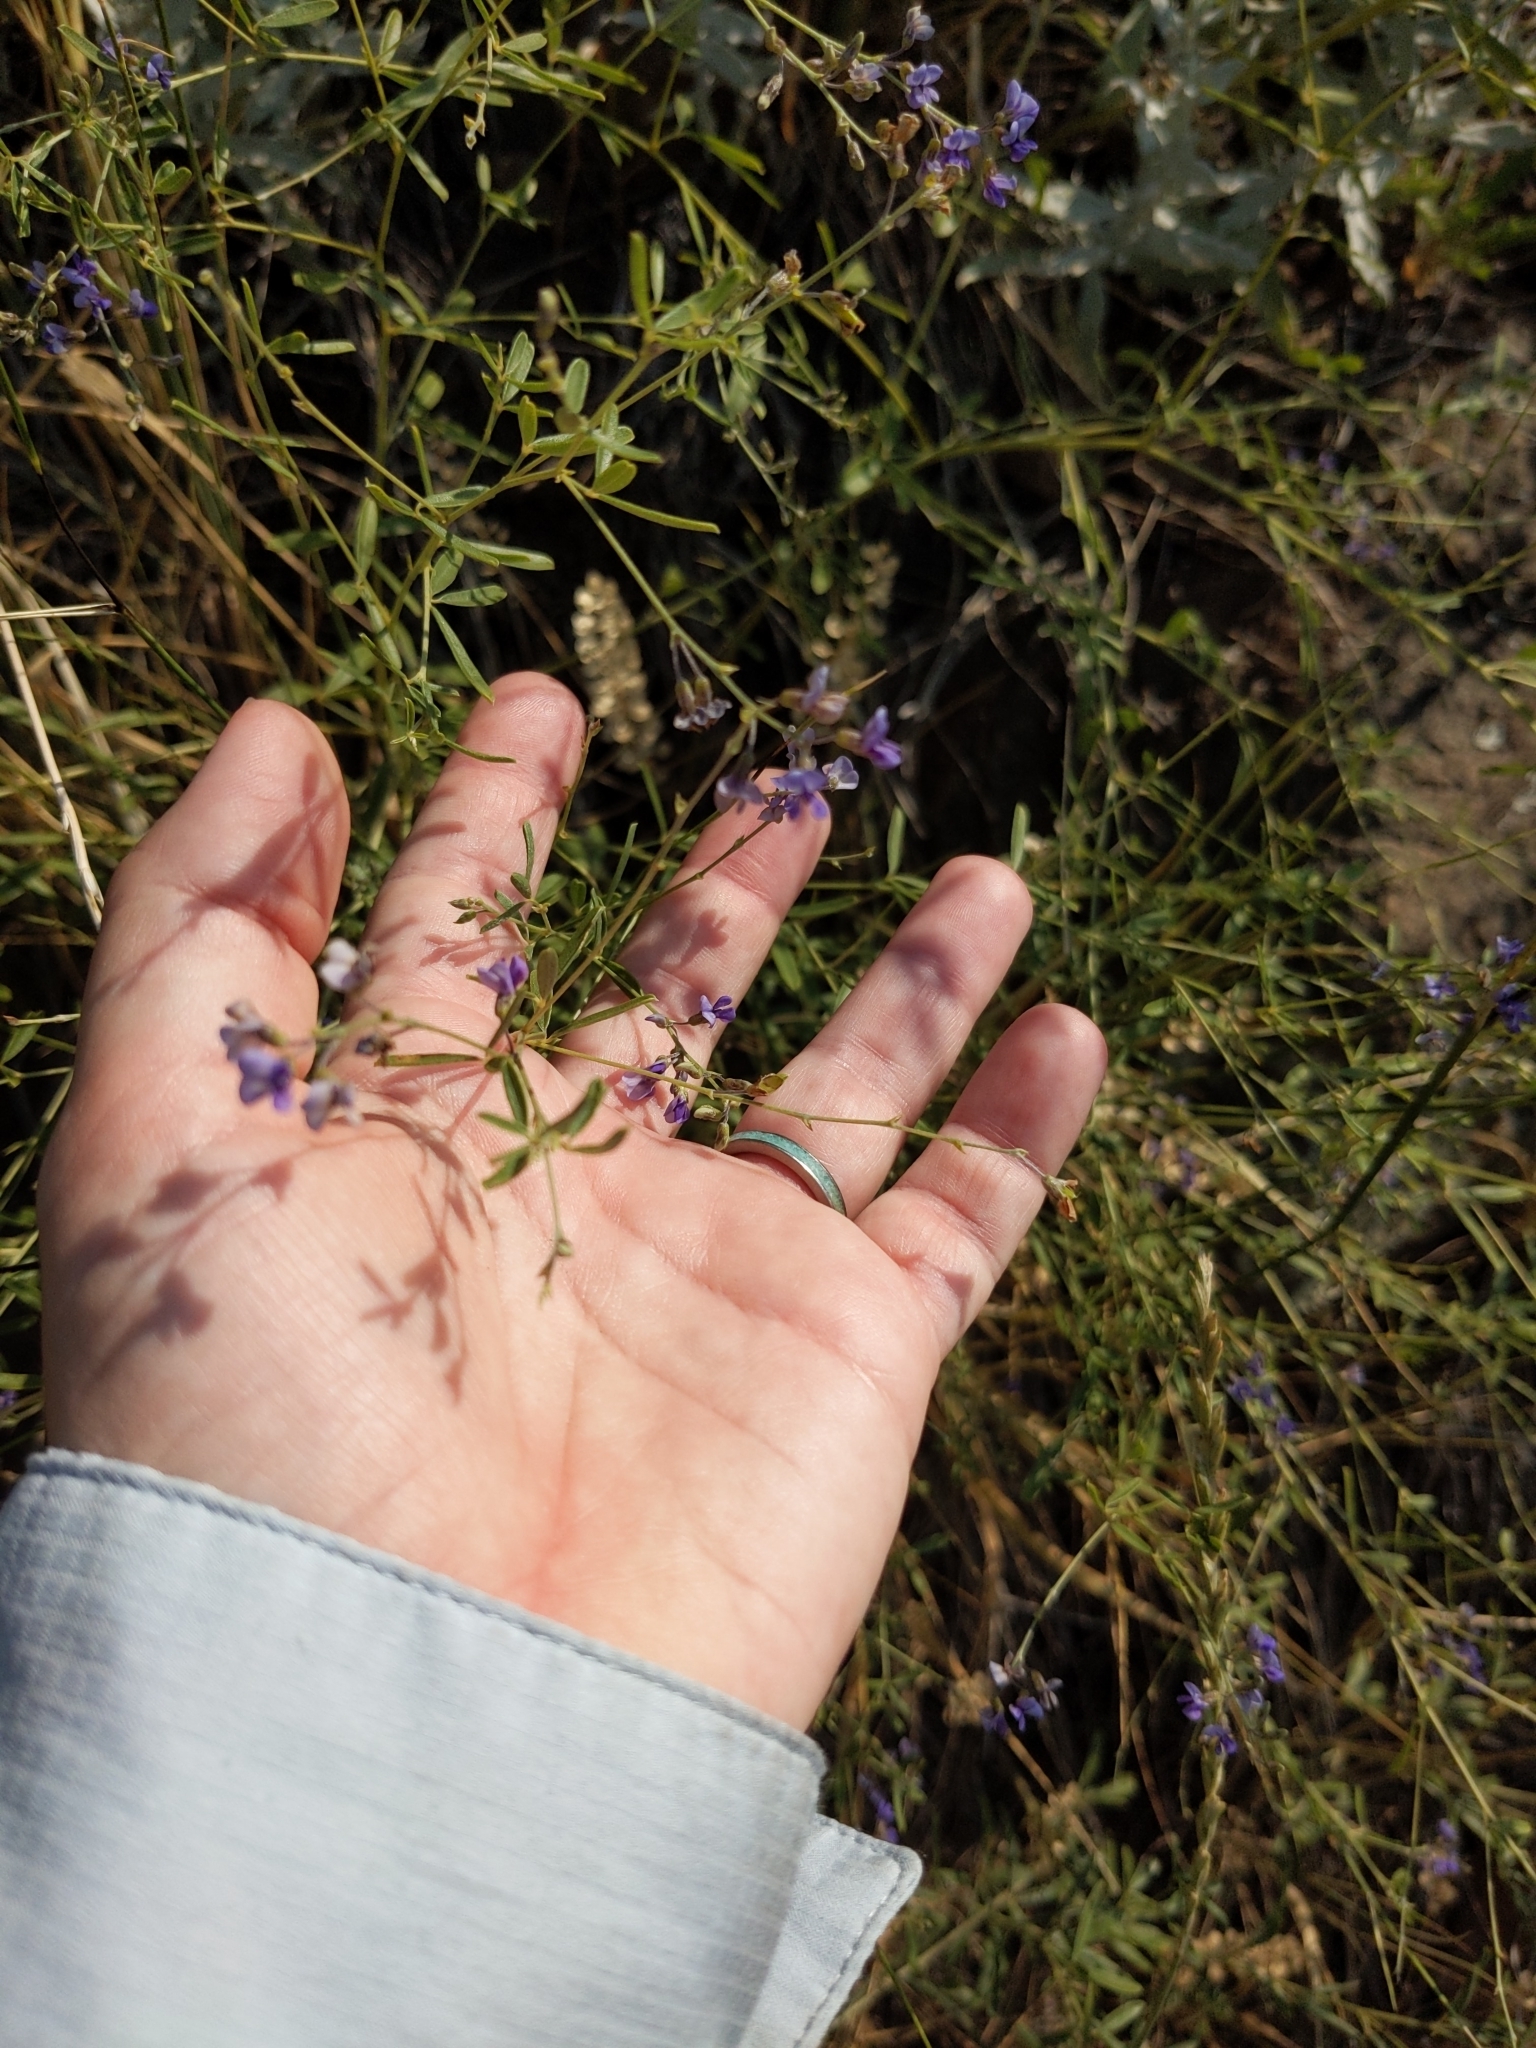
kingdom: Plantae
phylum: Tracheophyta
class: Magnoliopsida
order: Fabales
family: Fabaceae
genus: Pediomelum
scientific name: Pediomelum tenuiflorum
